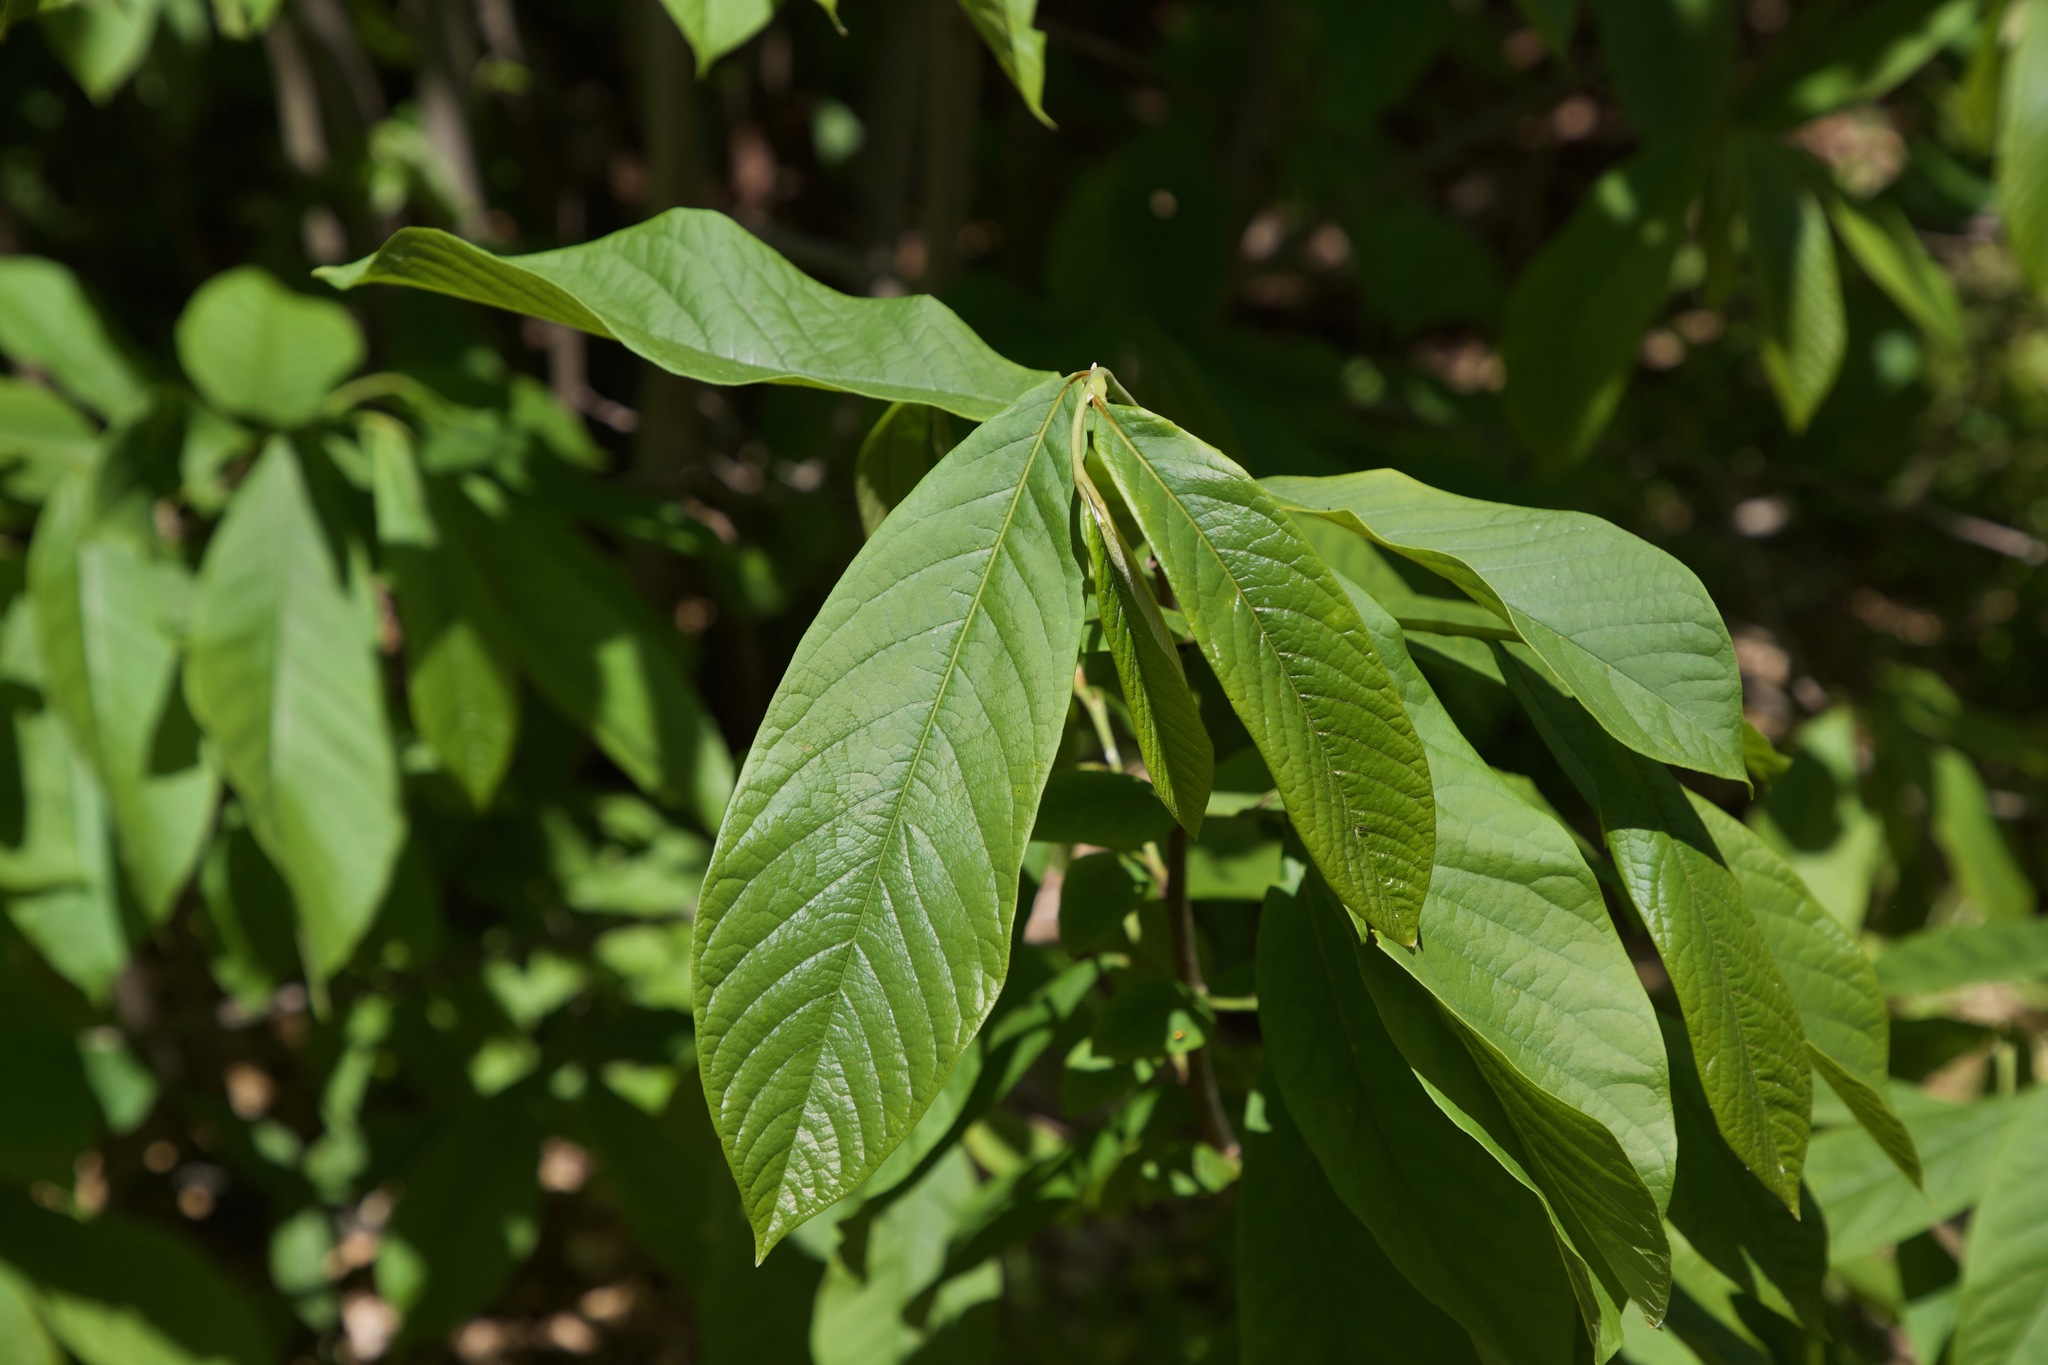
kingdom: Plantae
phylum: Tracheophyta
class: Magnoliopsida
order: Magnoliales
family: Annonaceae
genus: Asimina
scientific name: Asimina triloba
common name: Dog-banana
